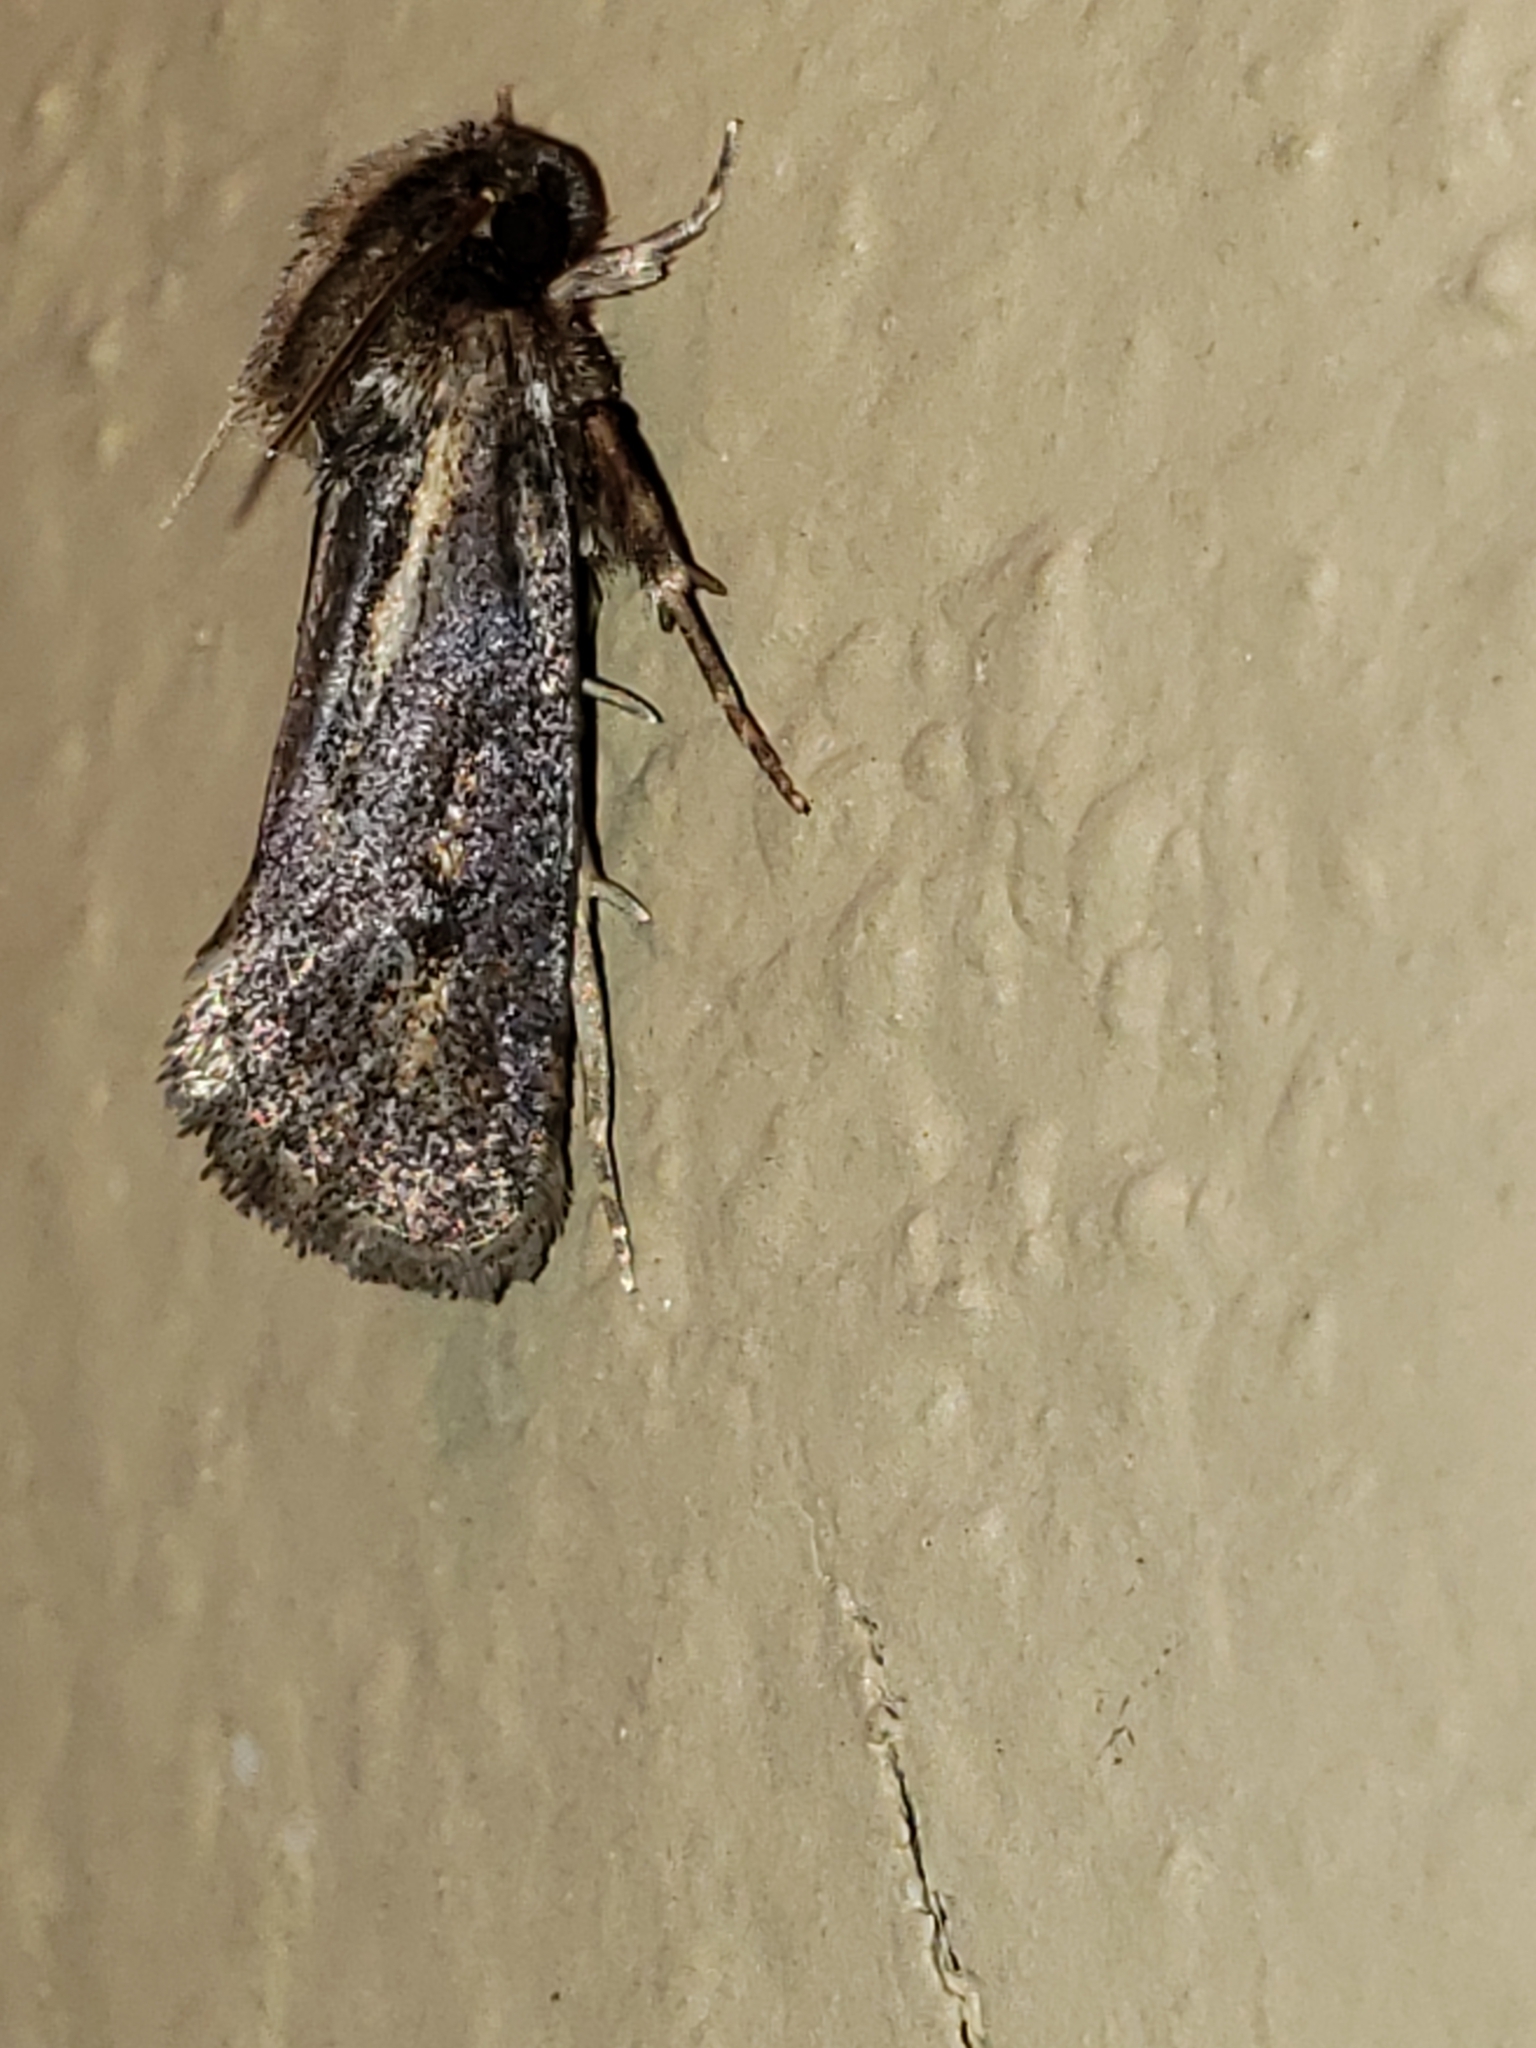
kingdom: Animalia
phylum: Arthropoda
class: Insecta
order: Lepidoptera
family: Tineidae
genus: Acrolophus
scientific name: Acrolophus popeanella
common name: Clemens' grass tubeworm moth
